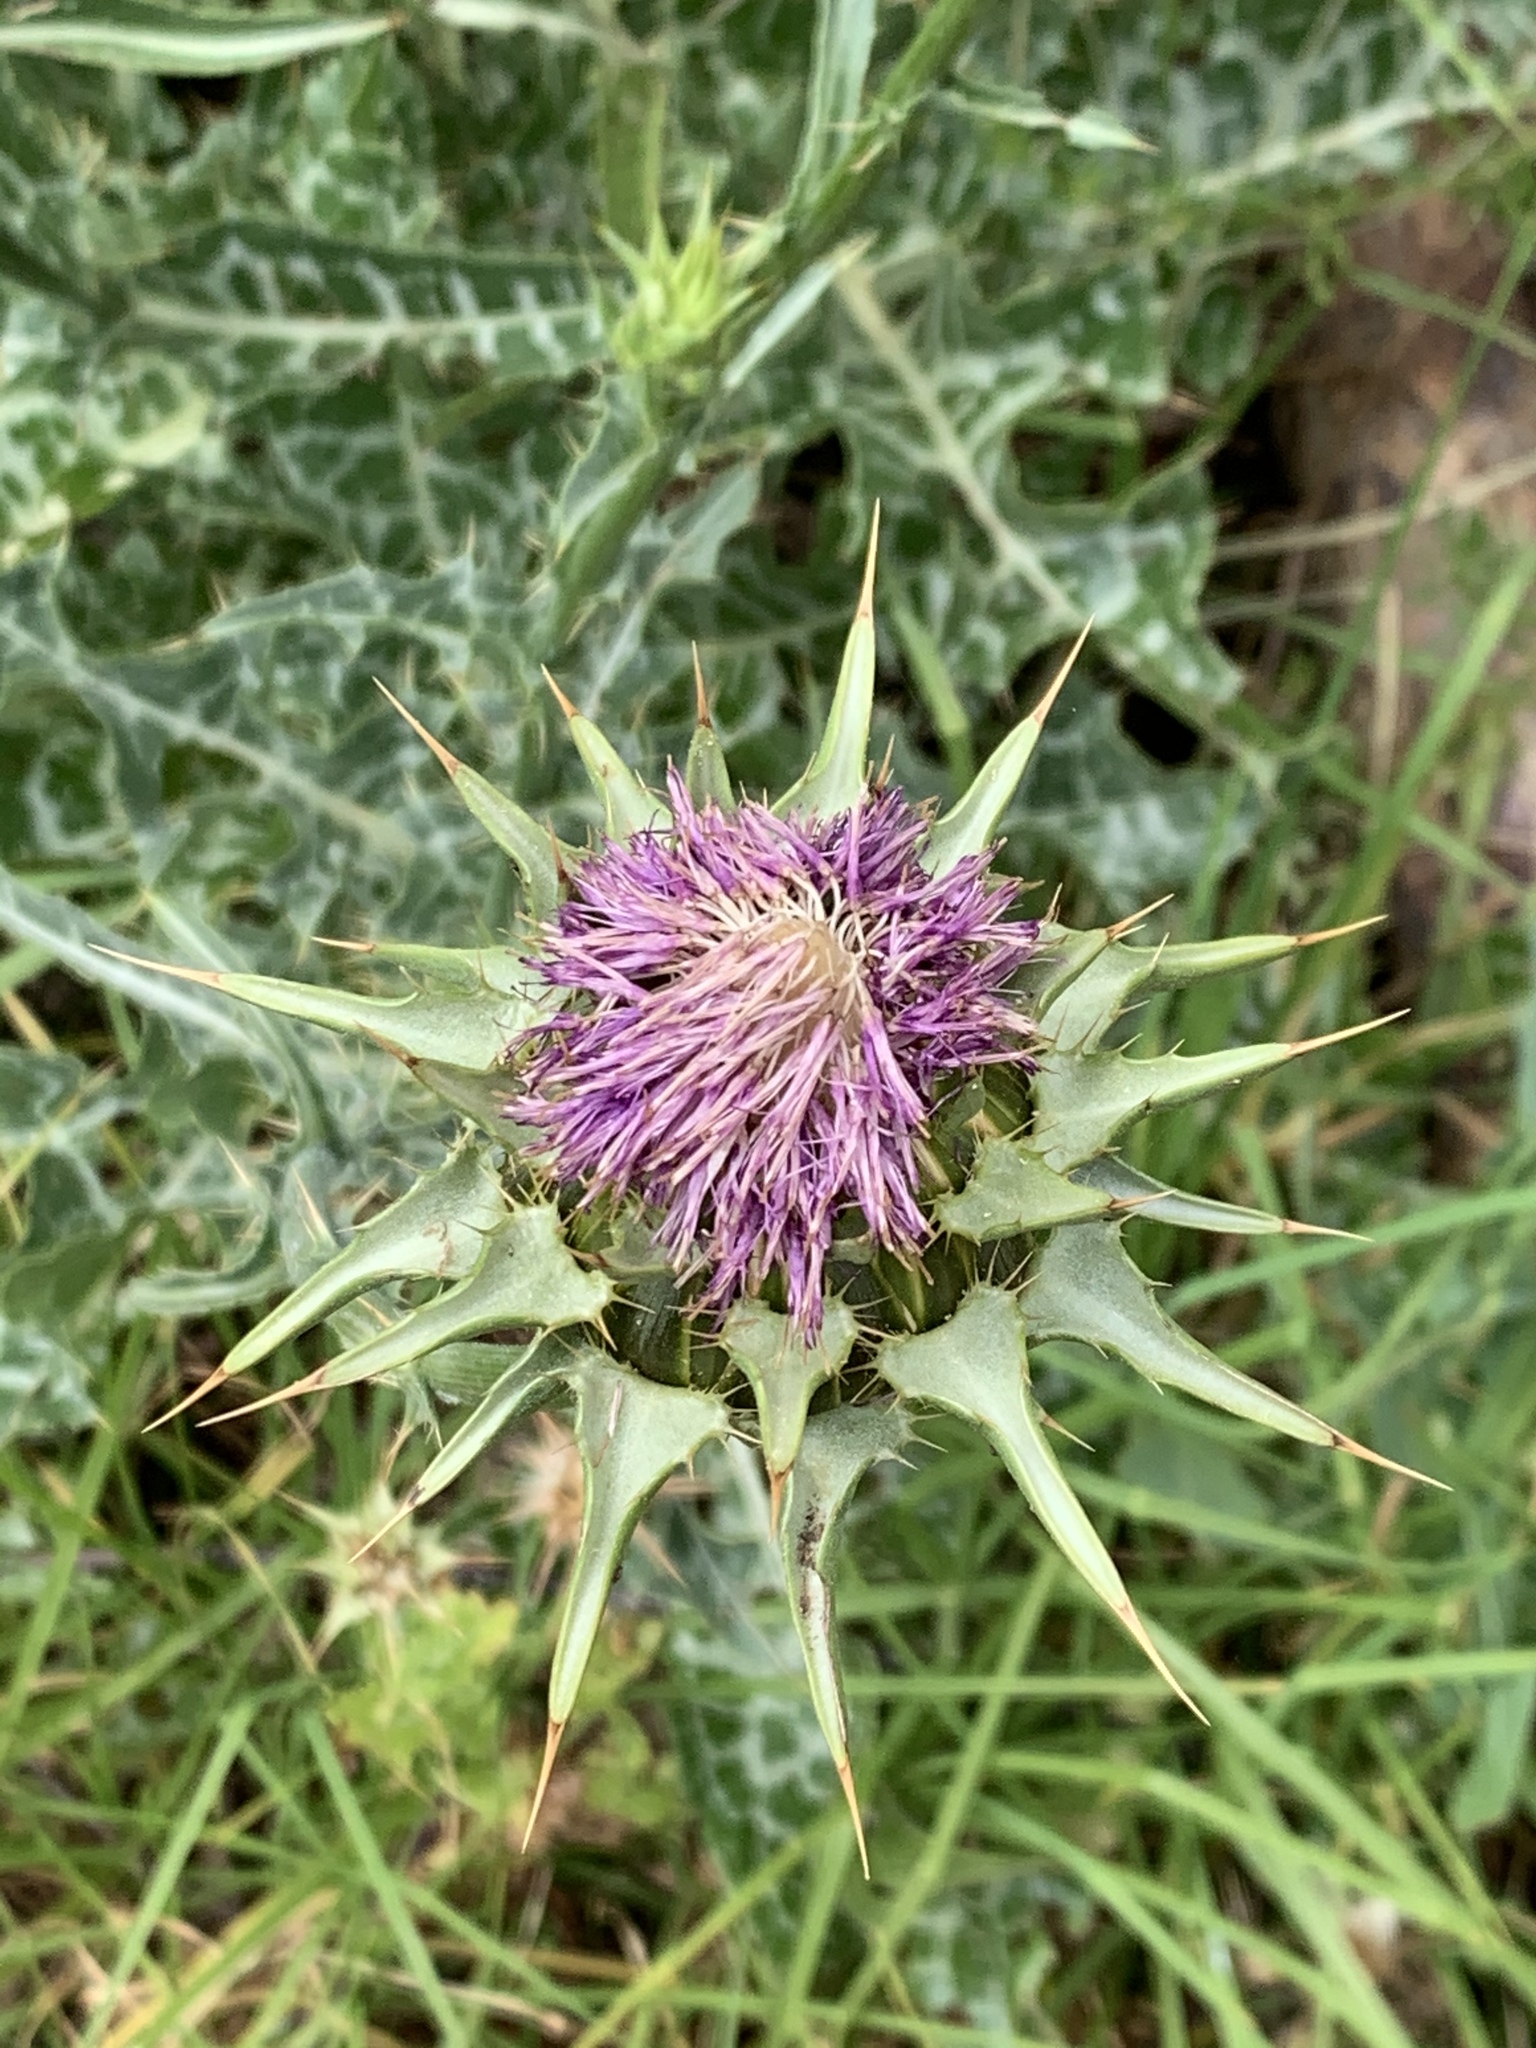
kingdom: Plantae
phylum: Tracheophyta
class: Magnoliopsida
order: Asterales
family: Asteraceae
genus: Cirsium
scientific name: Cirsium vulgare
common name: Bull thistle
